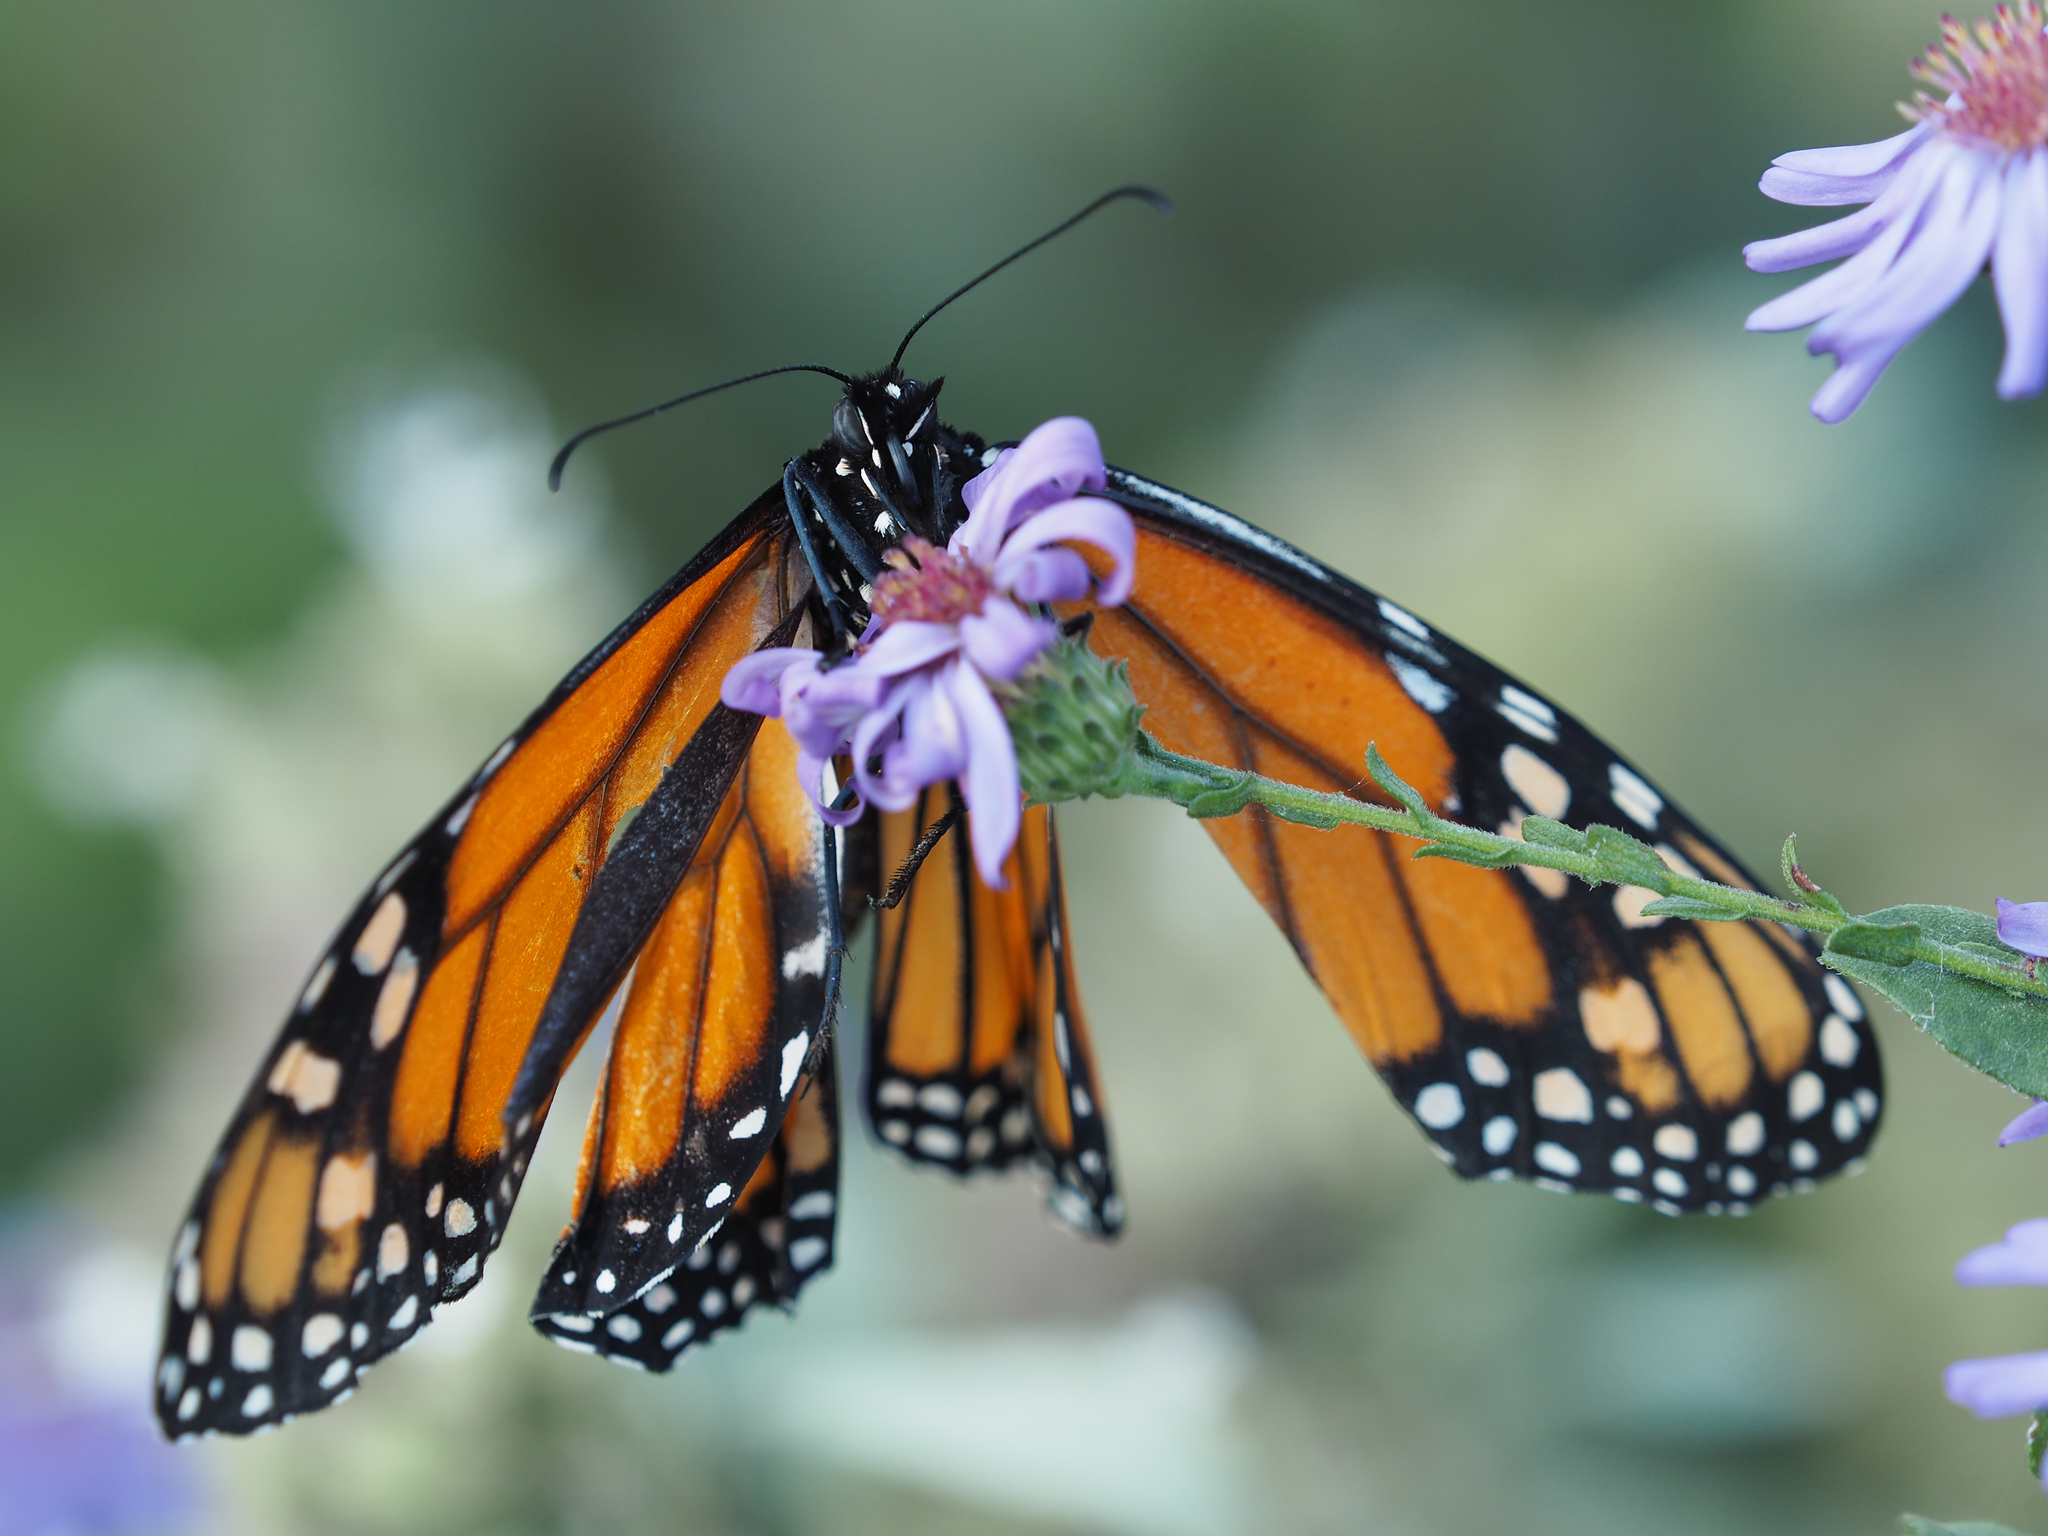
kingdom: Animalia
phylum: Arthropoda
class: Insecta
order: Lepidoptera
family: Nymphalidae
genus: Danaus
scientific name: Danaus plexippus
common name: Monarch
